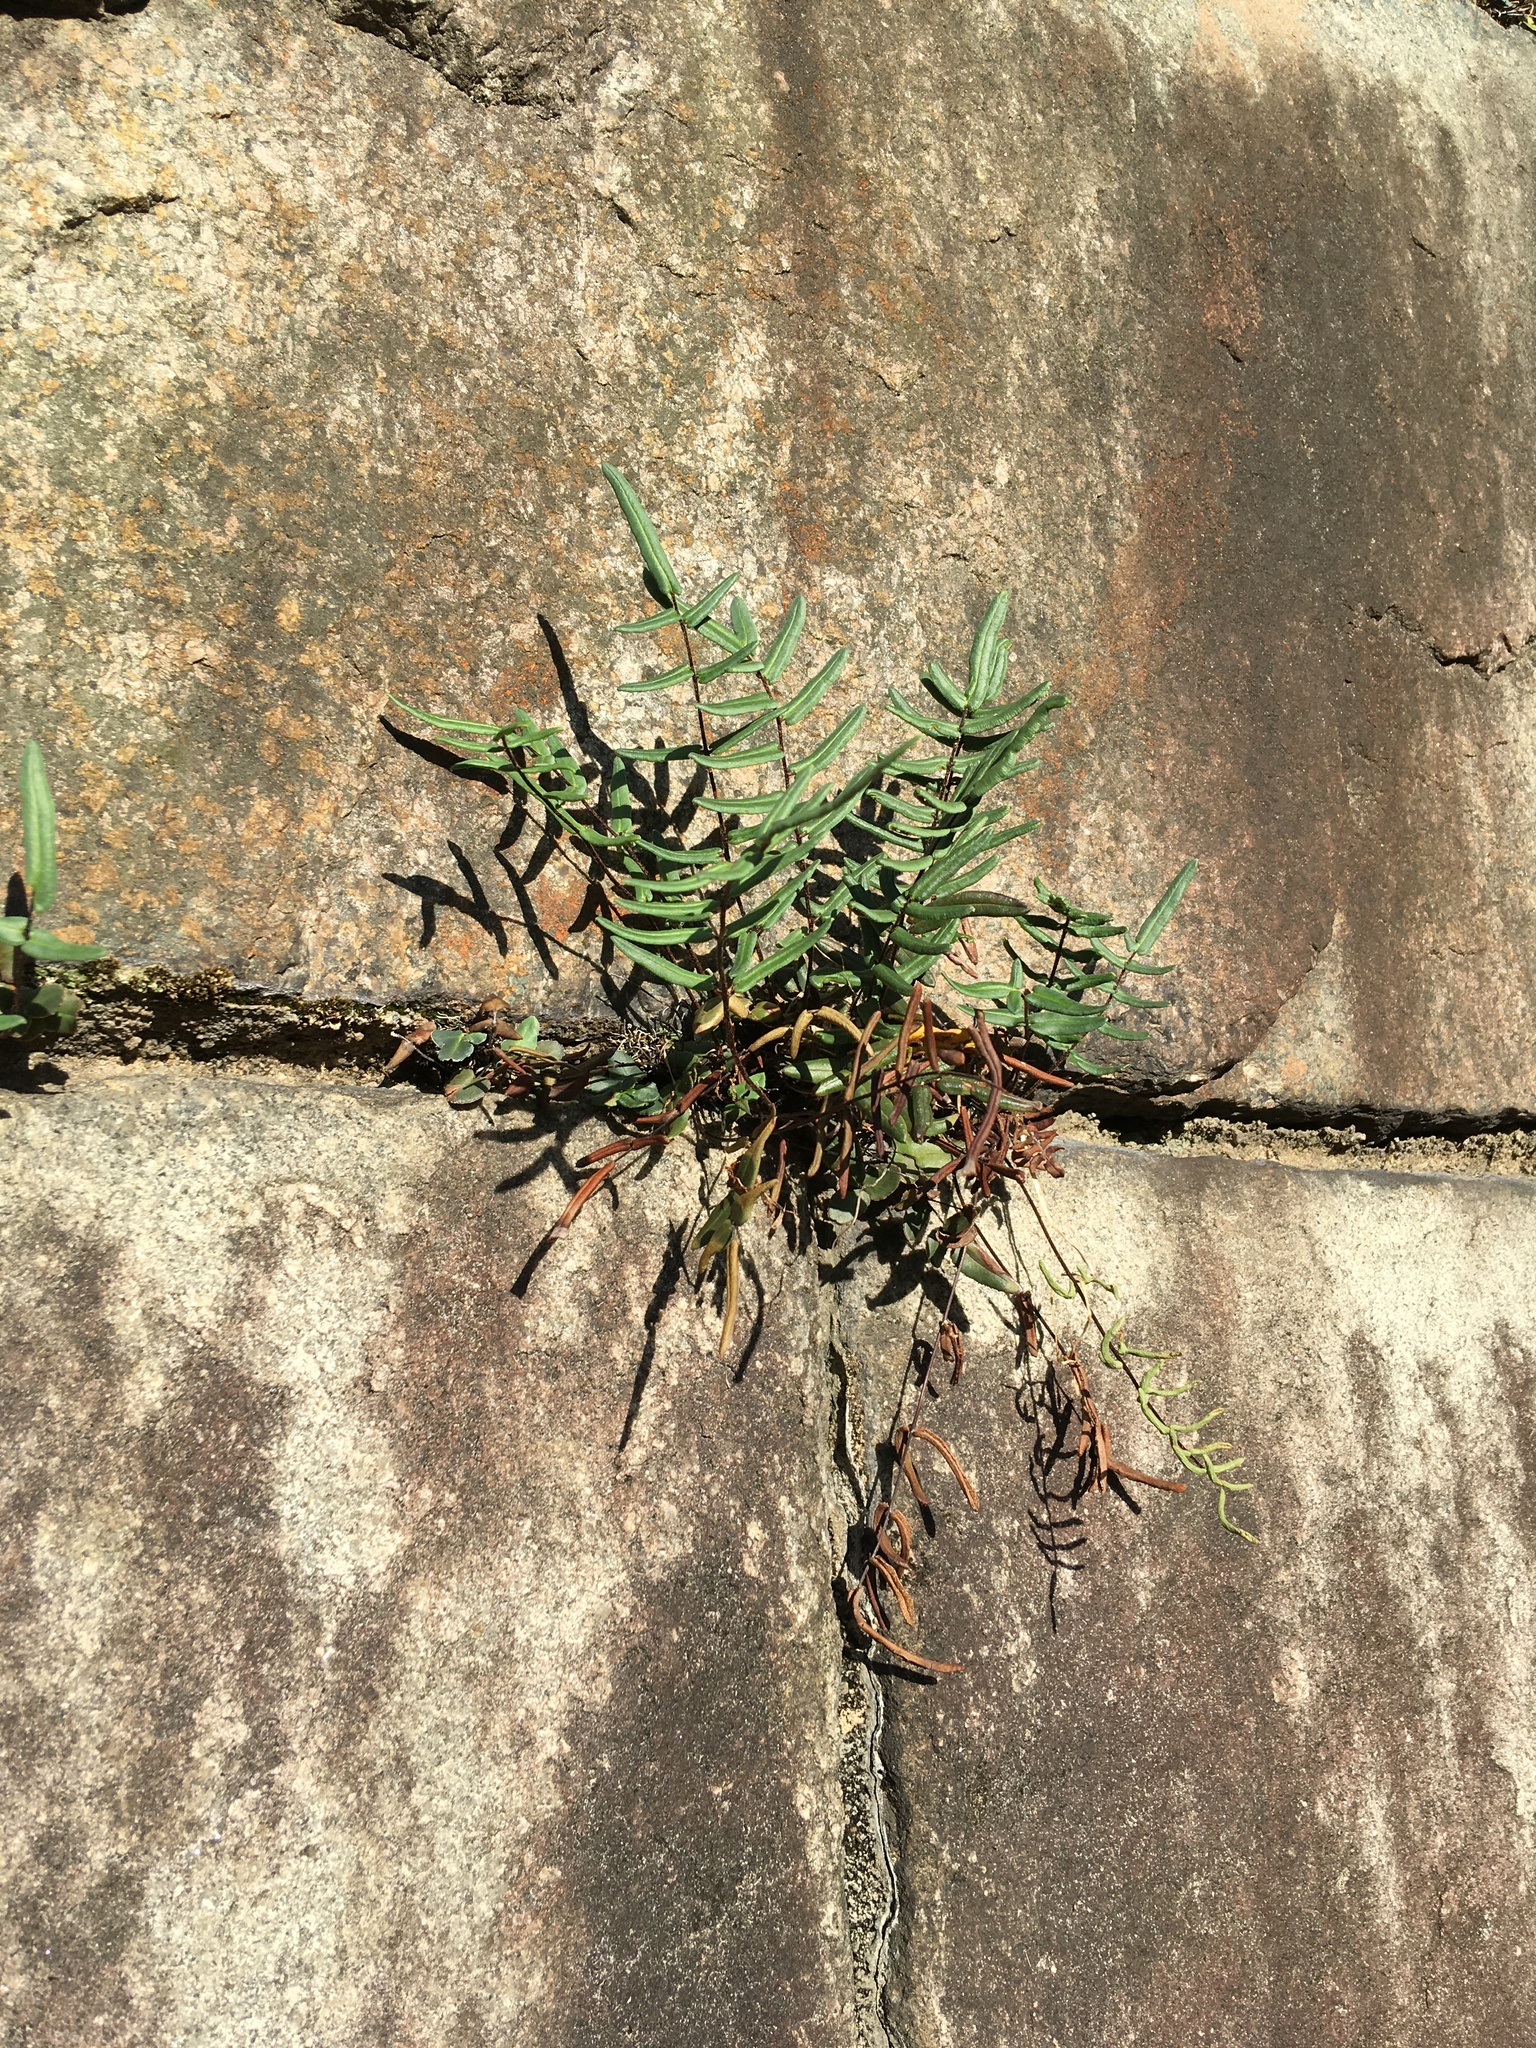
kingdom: Plantae
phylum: Tracheophyta
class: Polypodiopsida
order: Polypodiales
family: Pteridaceae
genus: Pellaea
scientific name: Pellaea atropurpurea
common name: Hairy cliffbrake
